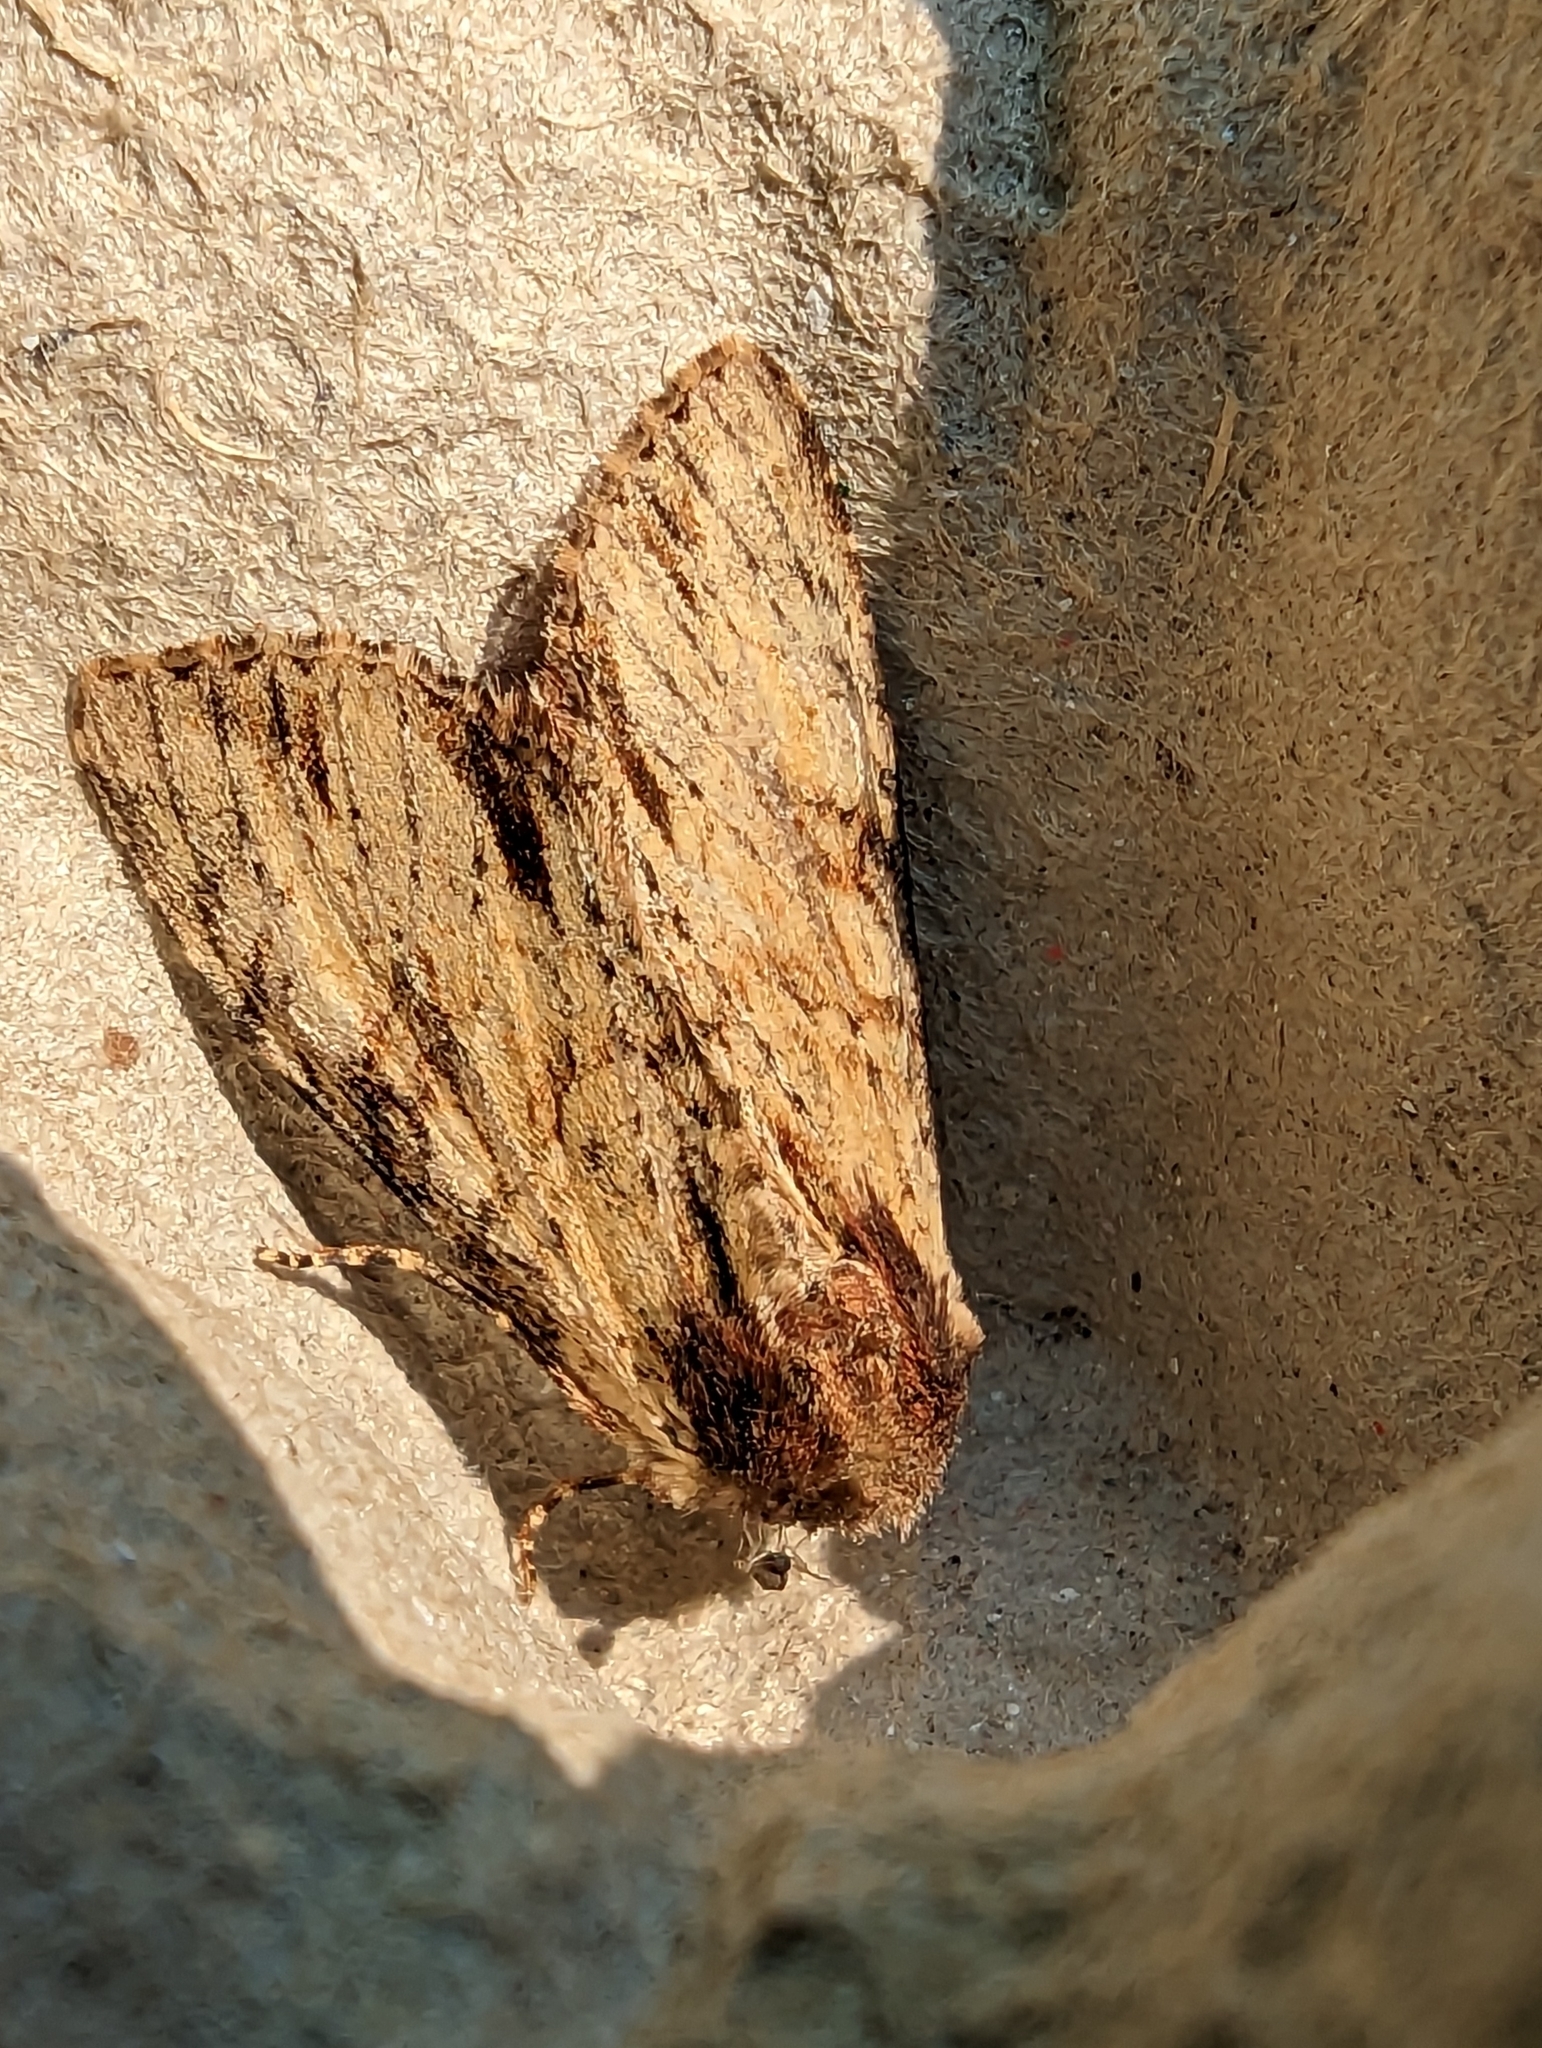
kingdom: Animalia
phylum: Arthropoda
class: Insecta
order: Lepidoptera
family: Noctuidae
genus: Apamea
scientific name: Apamea crenata
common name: Clouded-bordered brindle
